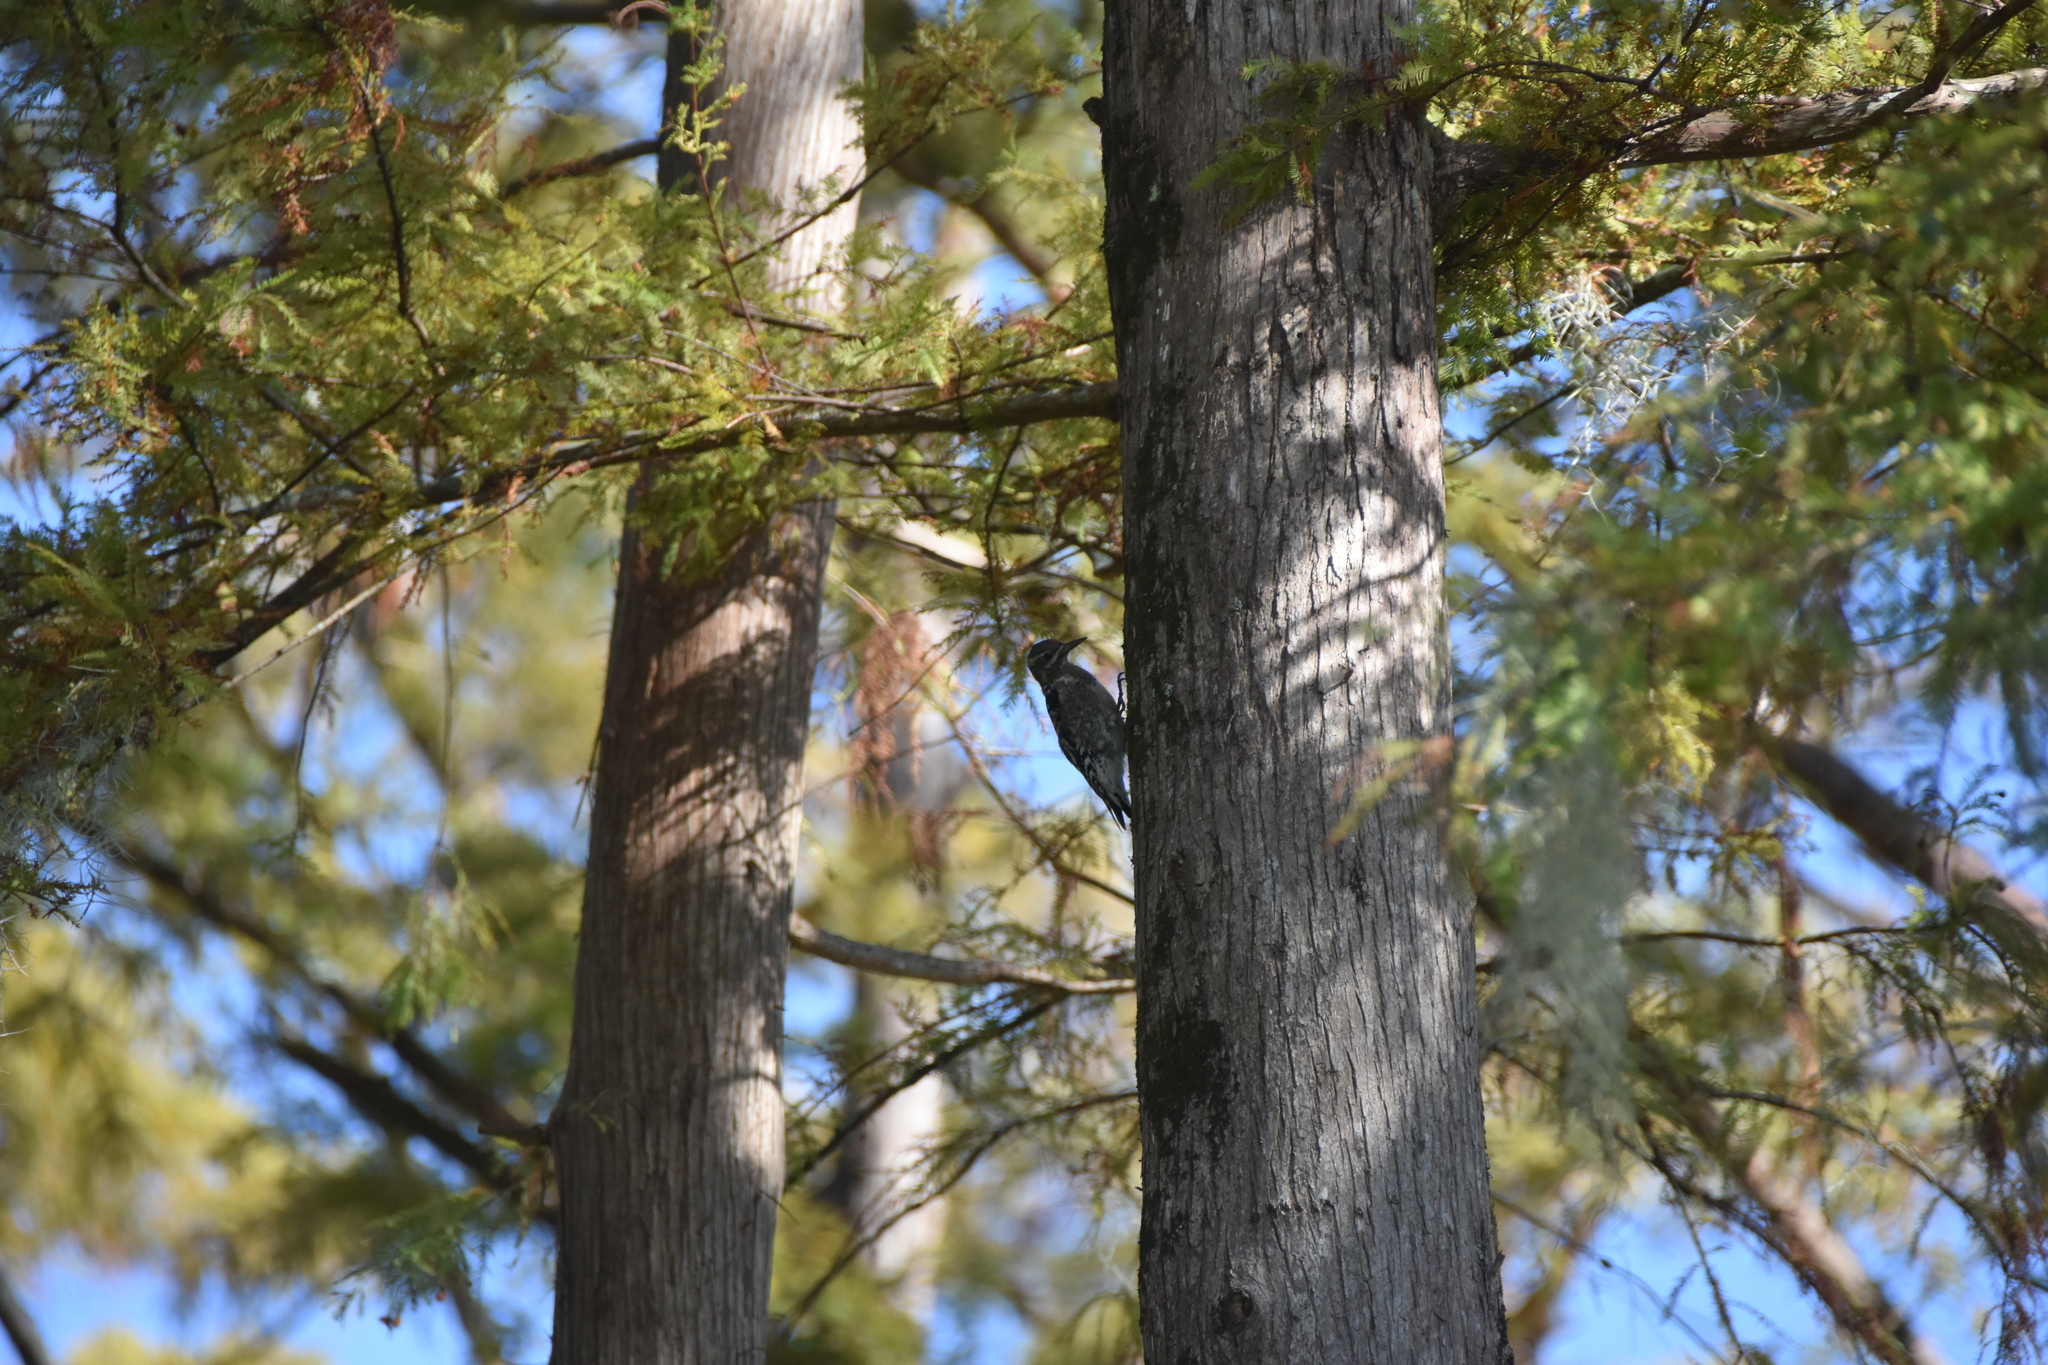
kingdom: Animalia
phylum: Chordata
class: Aves
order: Piciformes
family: Picidae
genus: Sphyrapicus
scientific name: Sphyrapicus varius
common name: Yellow-bellied sapsucker
